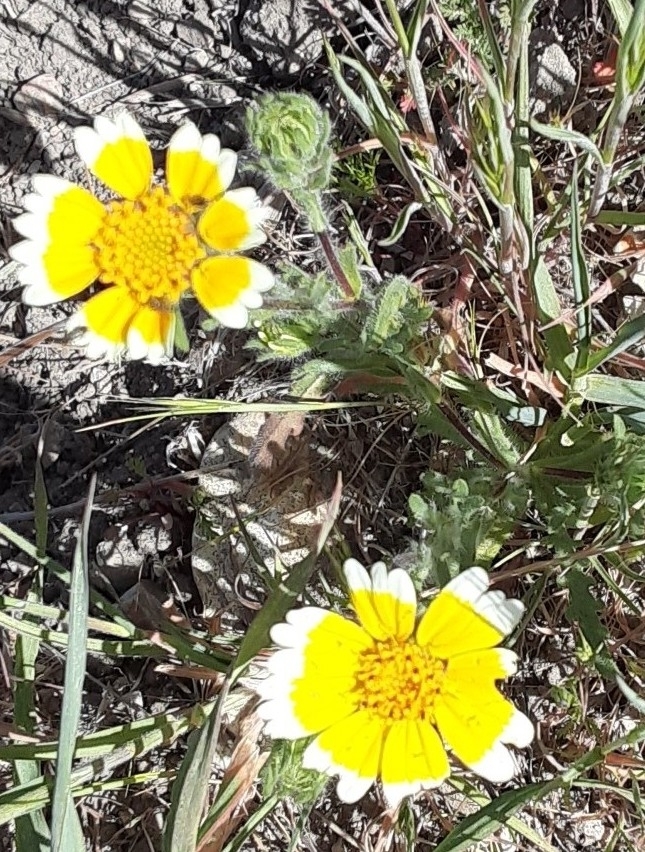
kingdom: Plantae
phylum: Tracheophyta
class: Magnoliopsida
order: Asterales
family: Asteraceae
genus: Layia
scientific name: Layia platyglossa
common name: Tidy-tips
